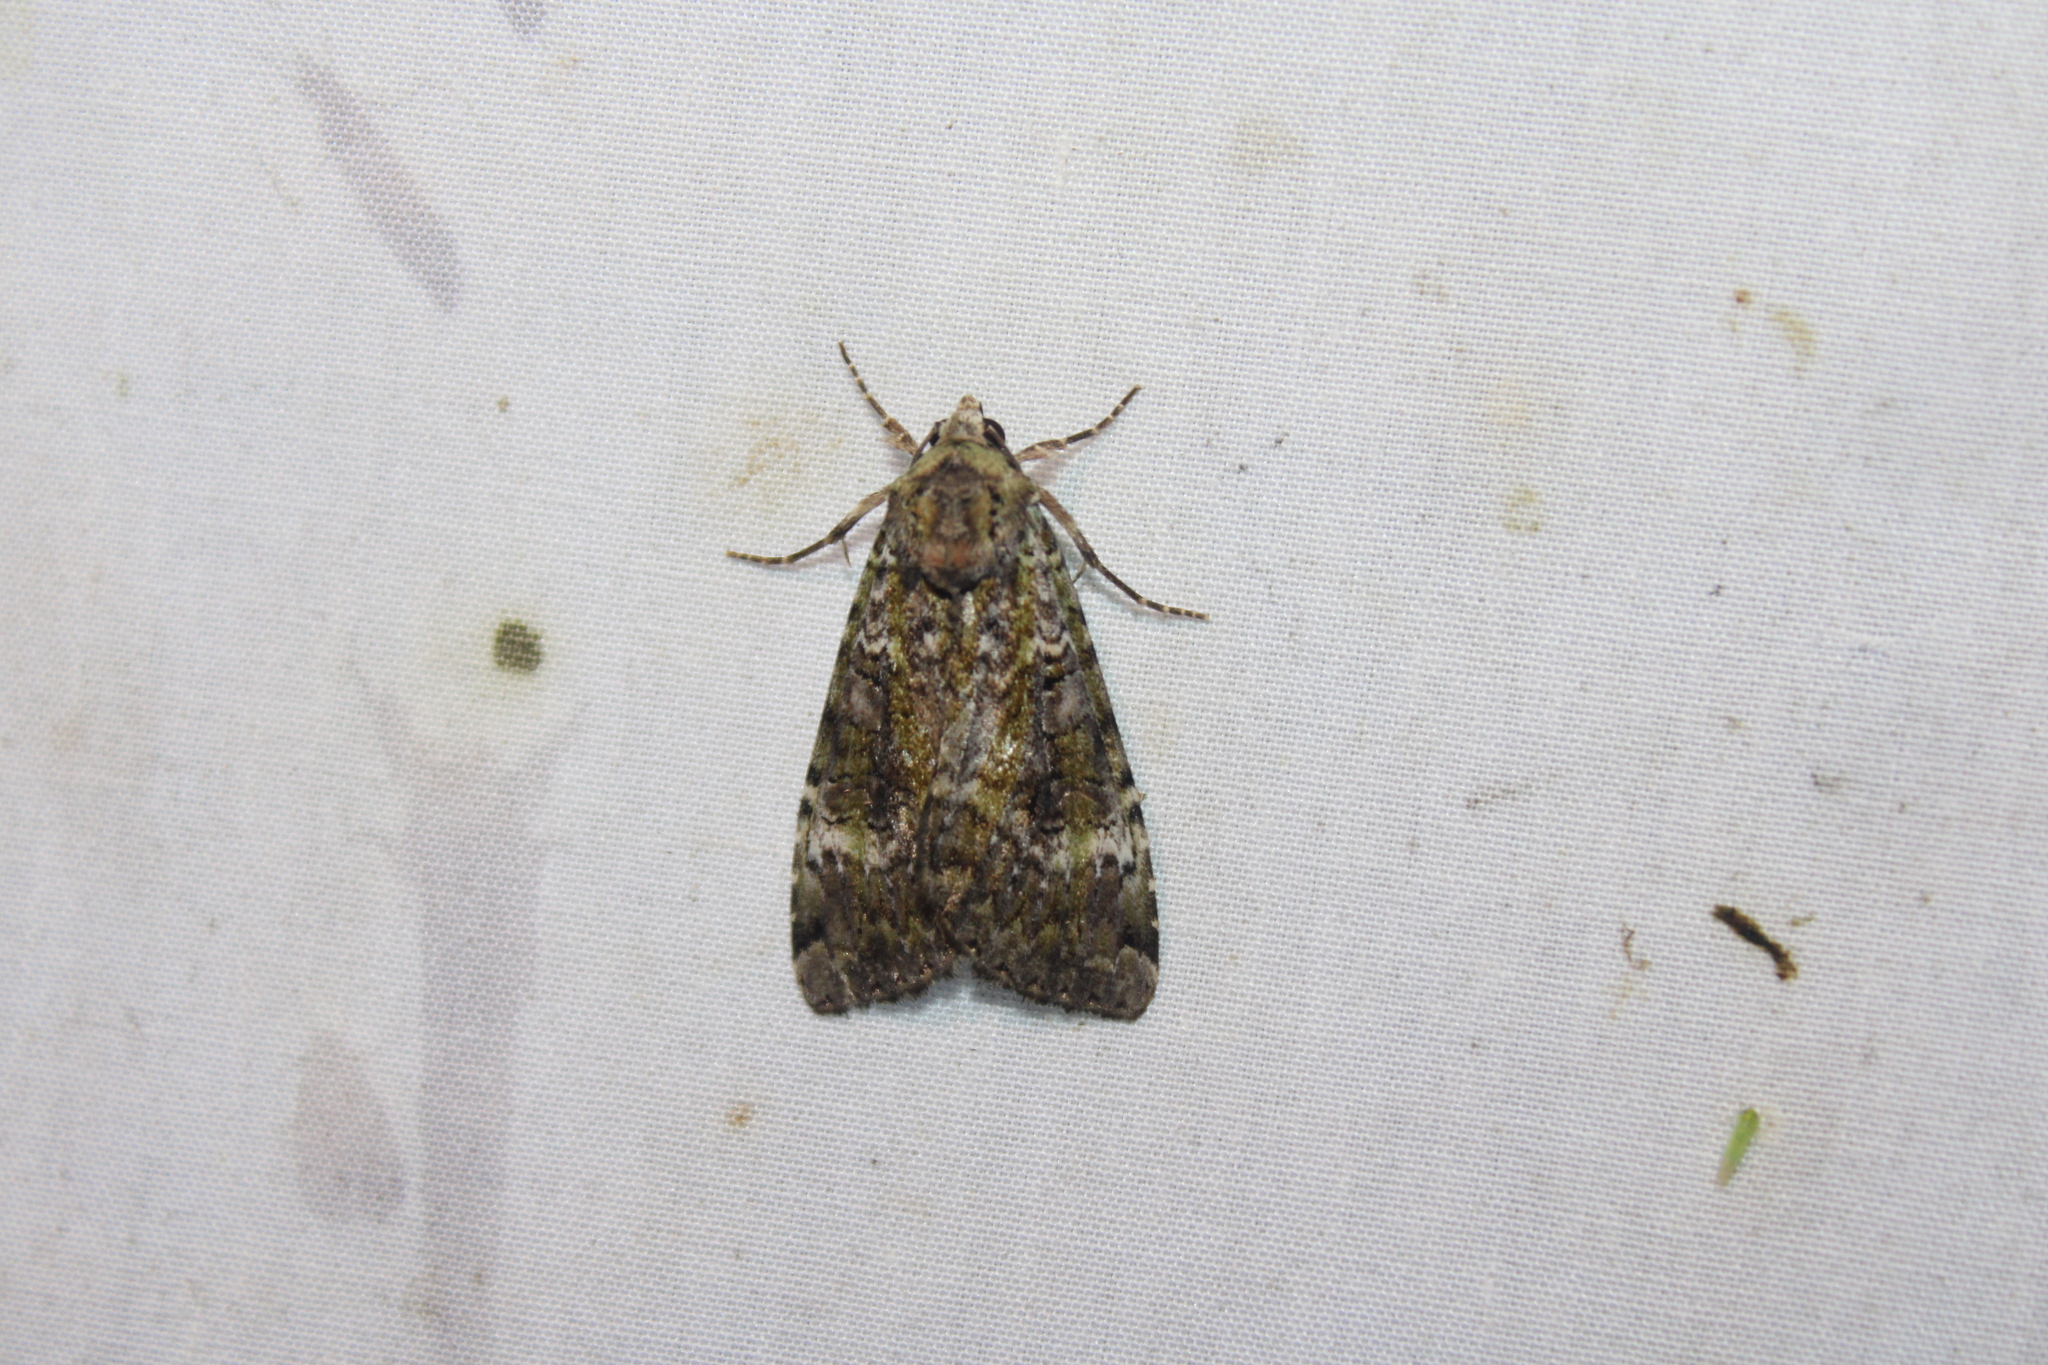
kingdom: Animalia
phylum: Arthropoda
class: Insecta
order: Lepidoptera
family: Noctuidae
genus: Anaplectoides
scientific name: Anaplectoides prasina
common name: Green arches
